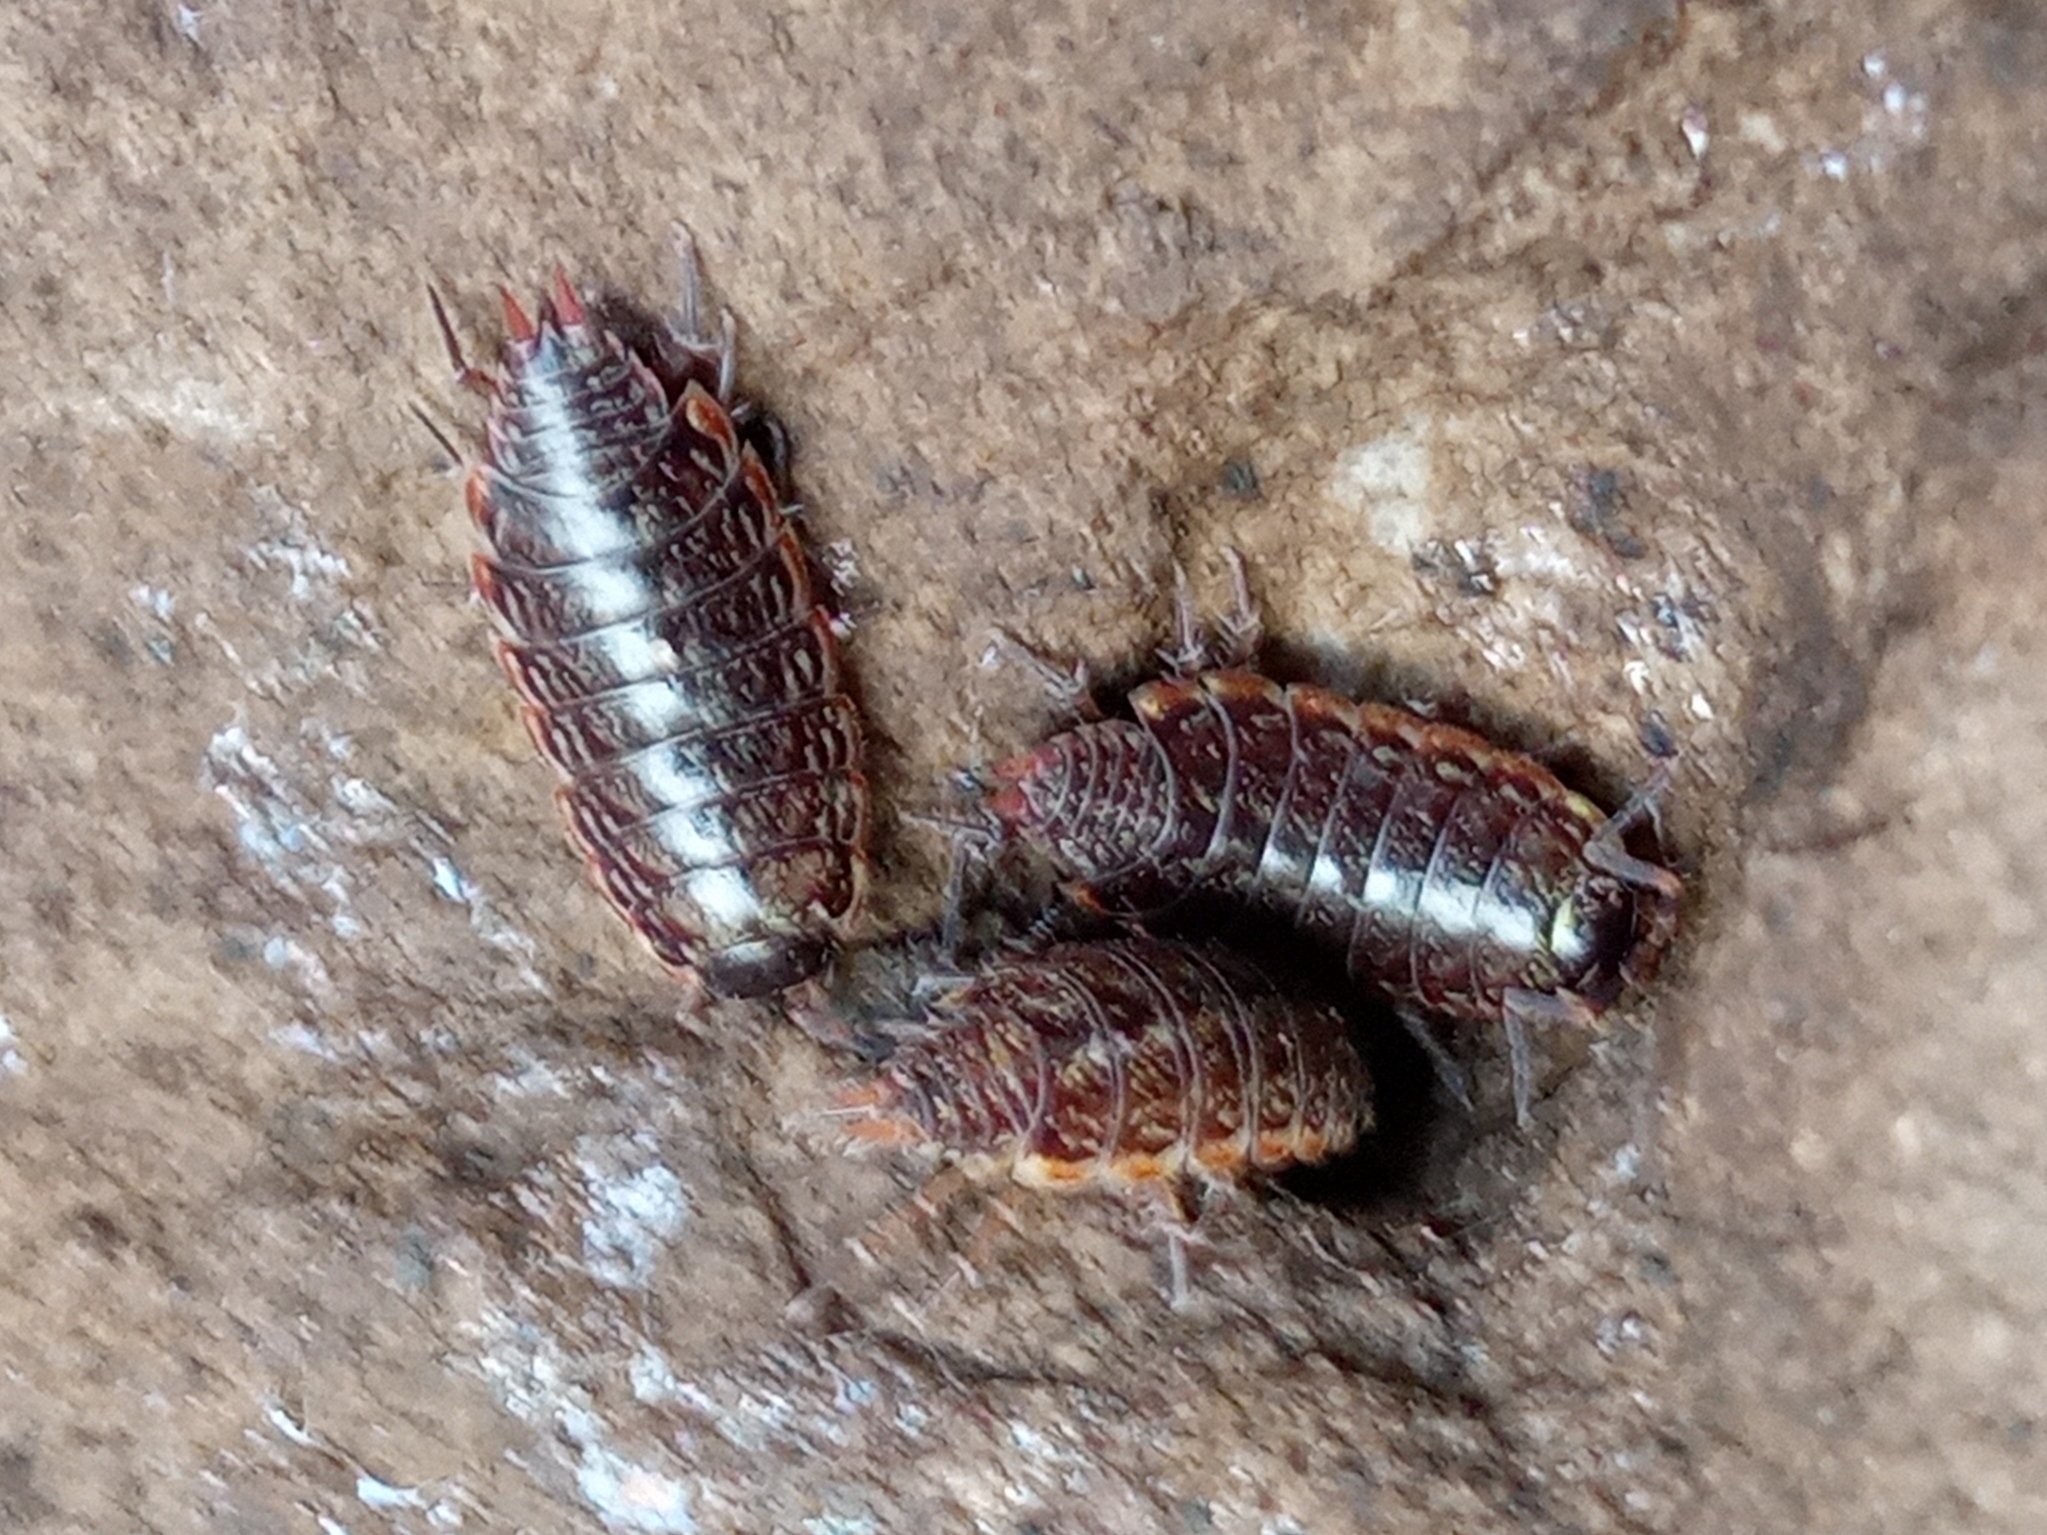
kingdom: Animalia
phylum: Arthropoda
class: Malacostraca
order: Isopoda
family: Philosciidae
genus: Philoscia
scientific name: Philoscia muscorum
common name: Common striped woodlouse
